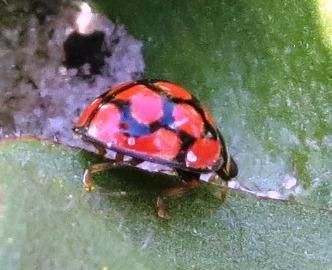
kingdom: Animalia
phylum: Arthropoda
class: Insecta
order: Coleoptera
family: Coccinellidae
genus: Cheilomenes
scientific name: Cheilomenes lunata
